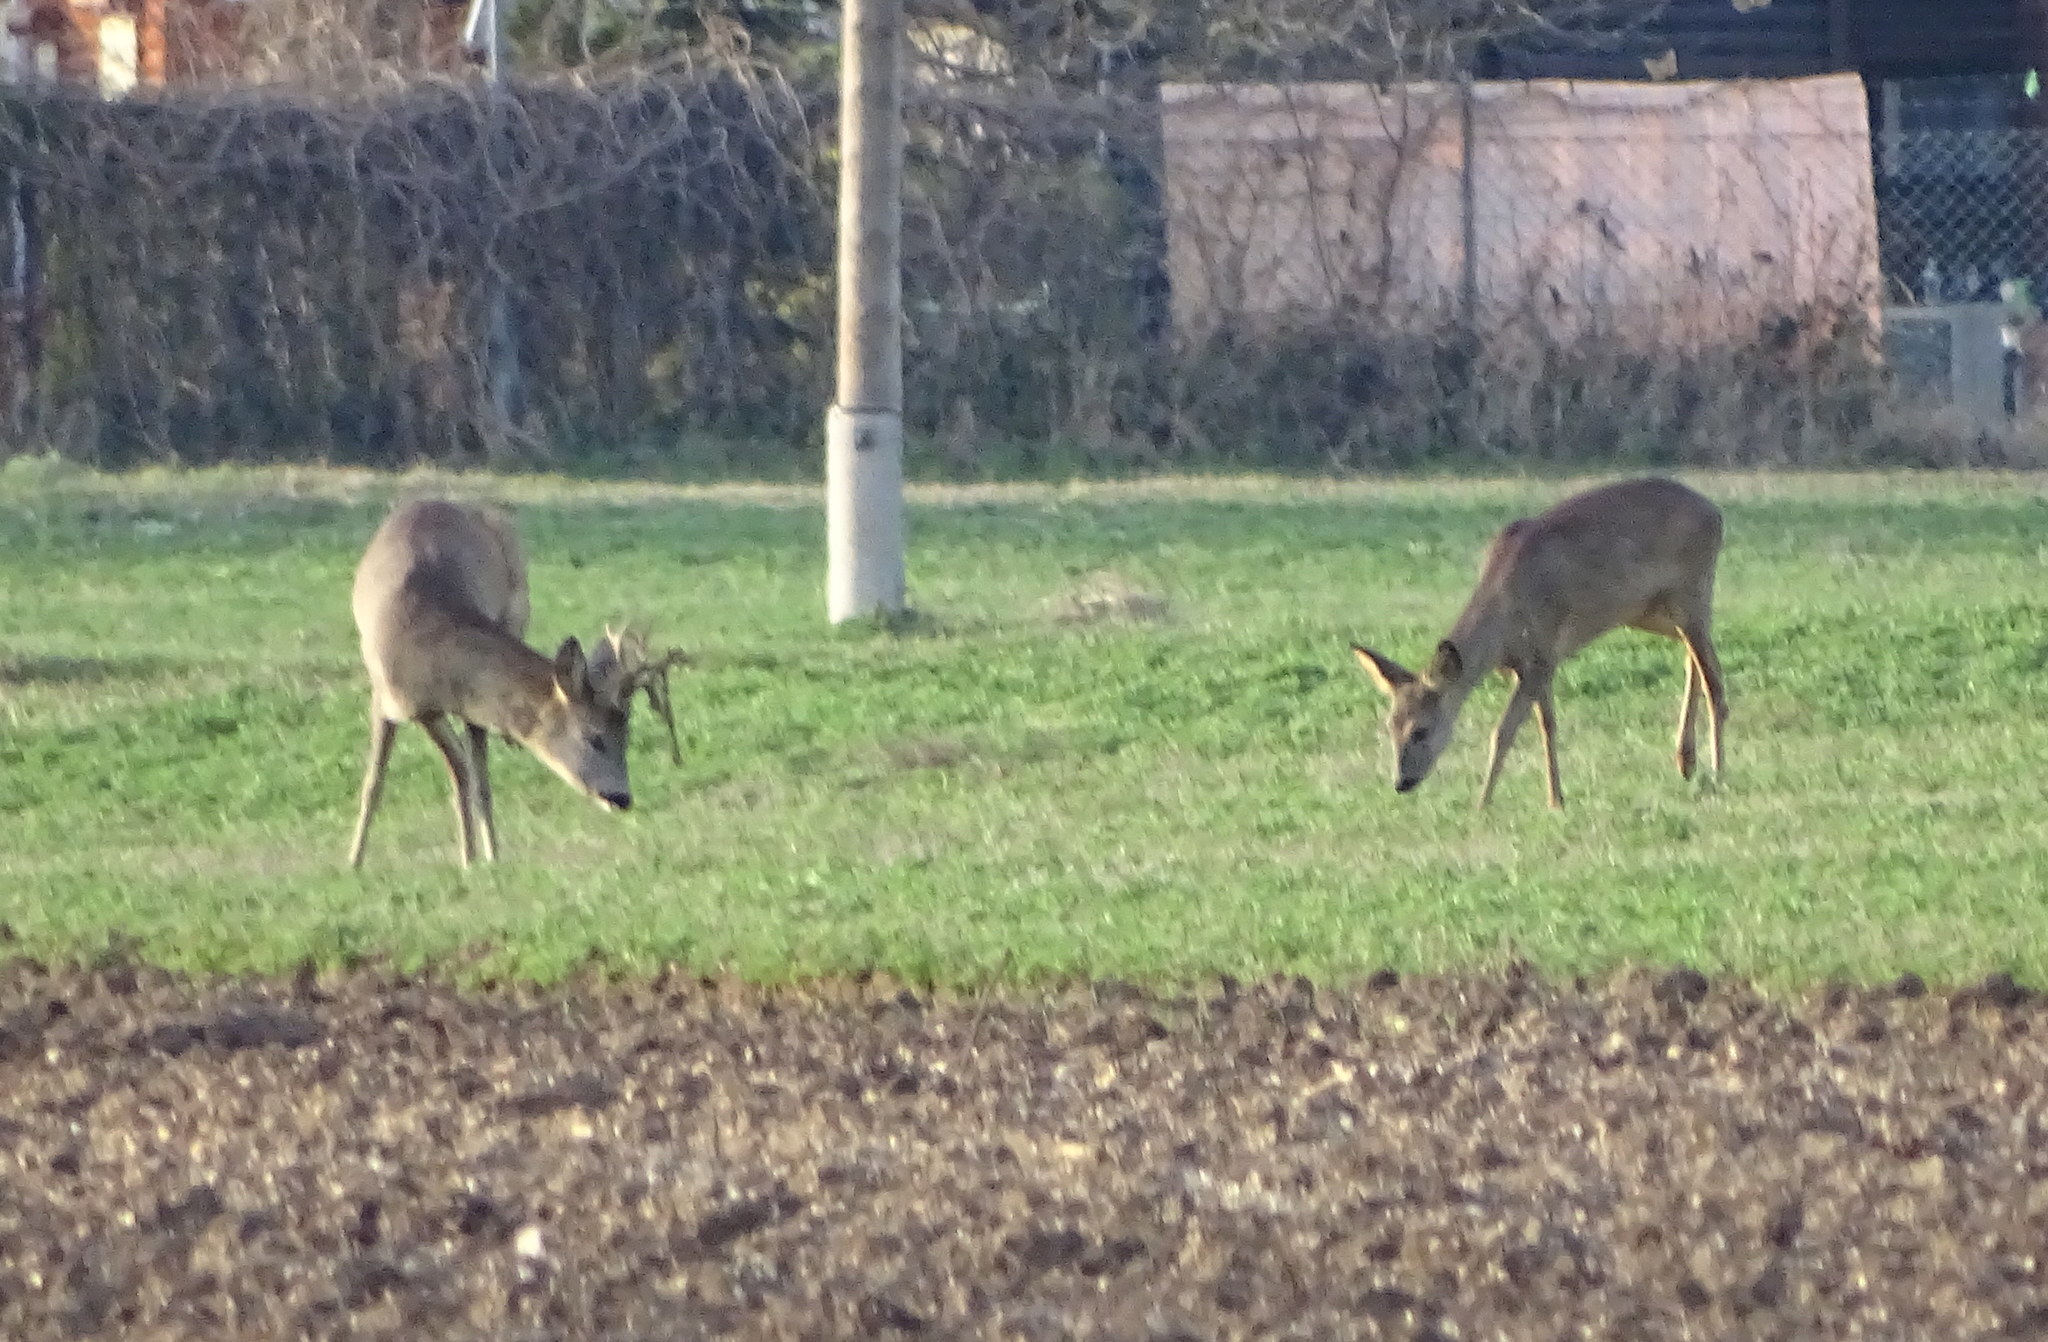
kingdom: Animalia
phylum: Chordata
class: Mammalia
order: Artiodactyla
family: Cervidae
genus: Capreolus
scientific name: Capreolus capreolus
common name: Western roe deer
